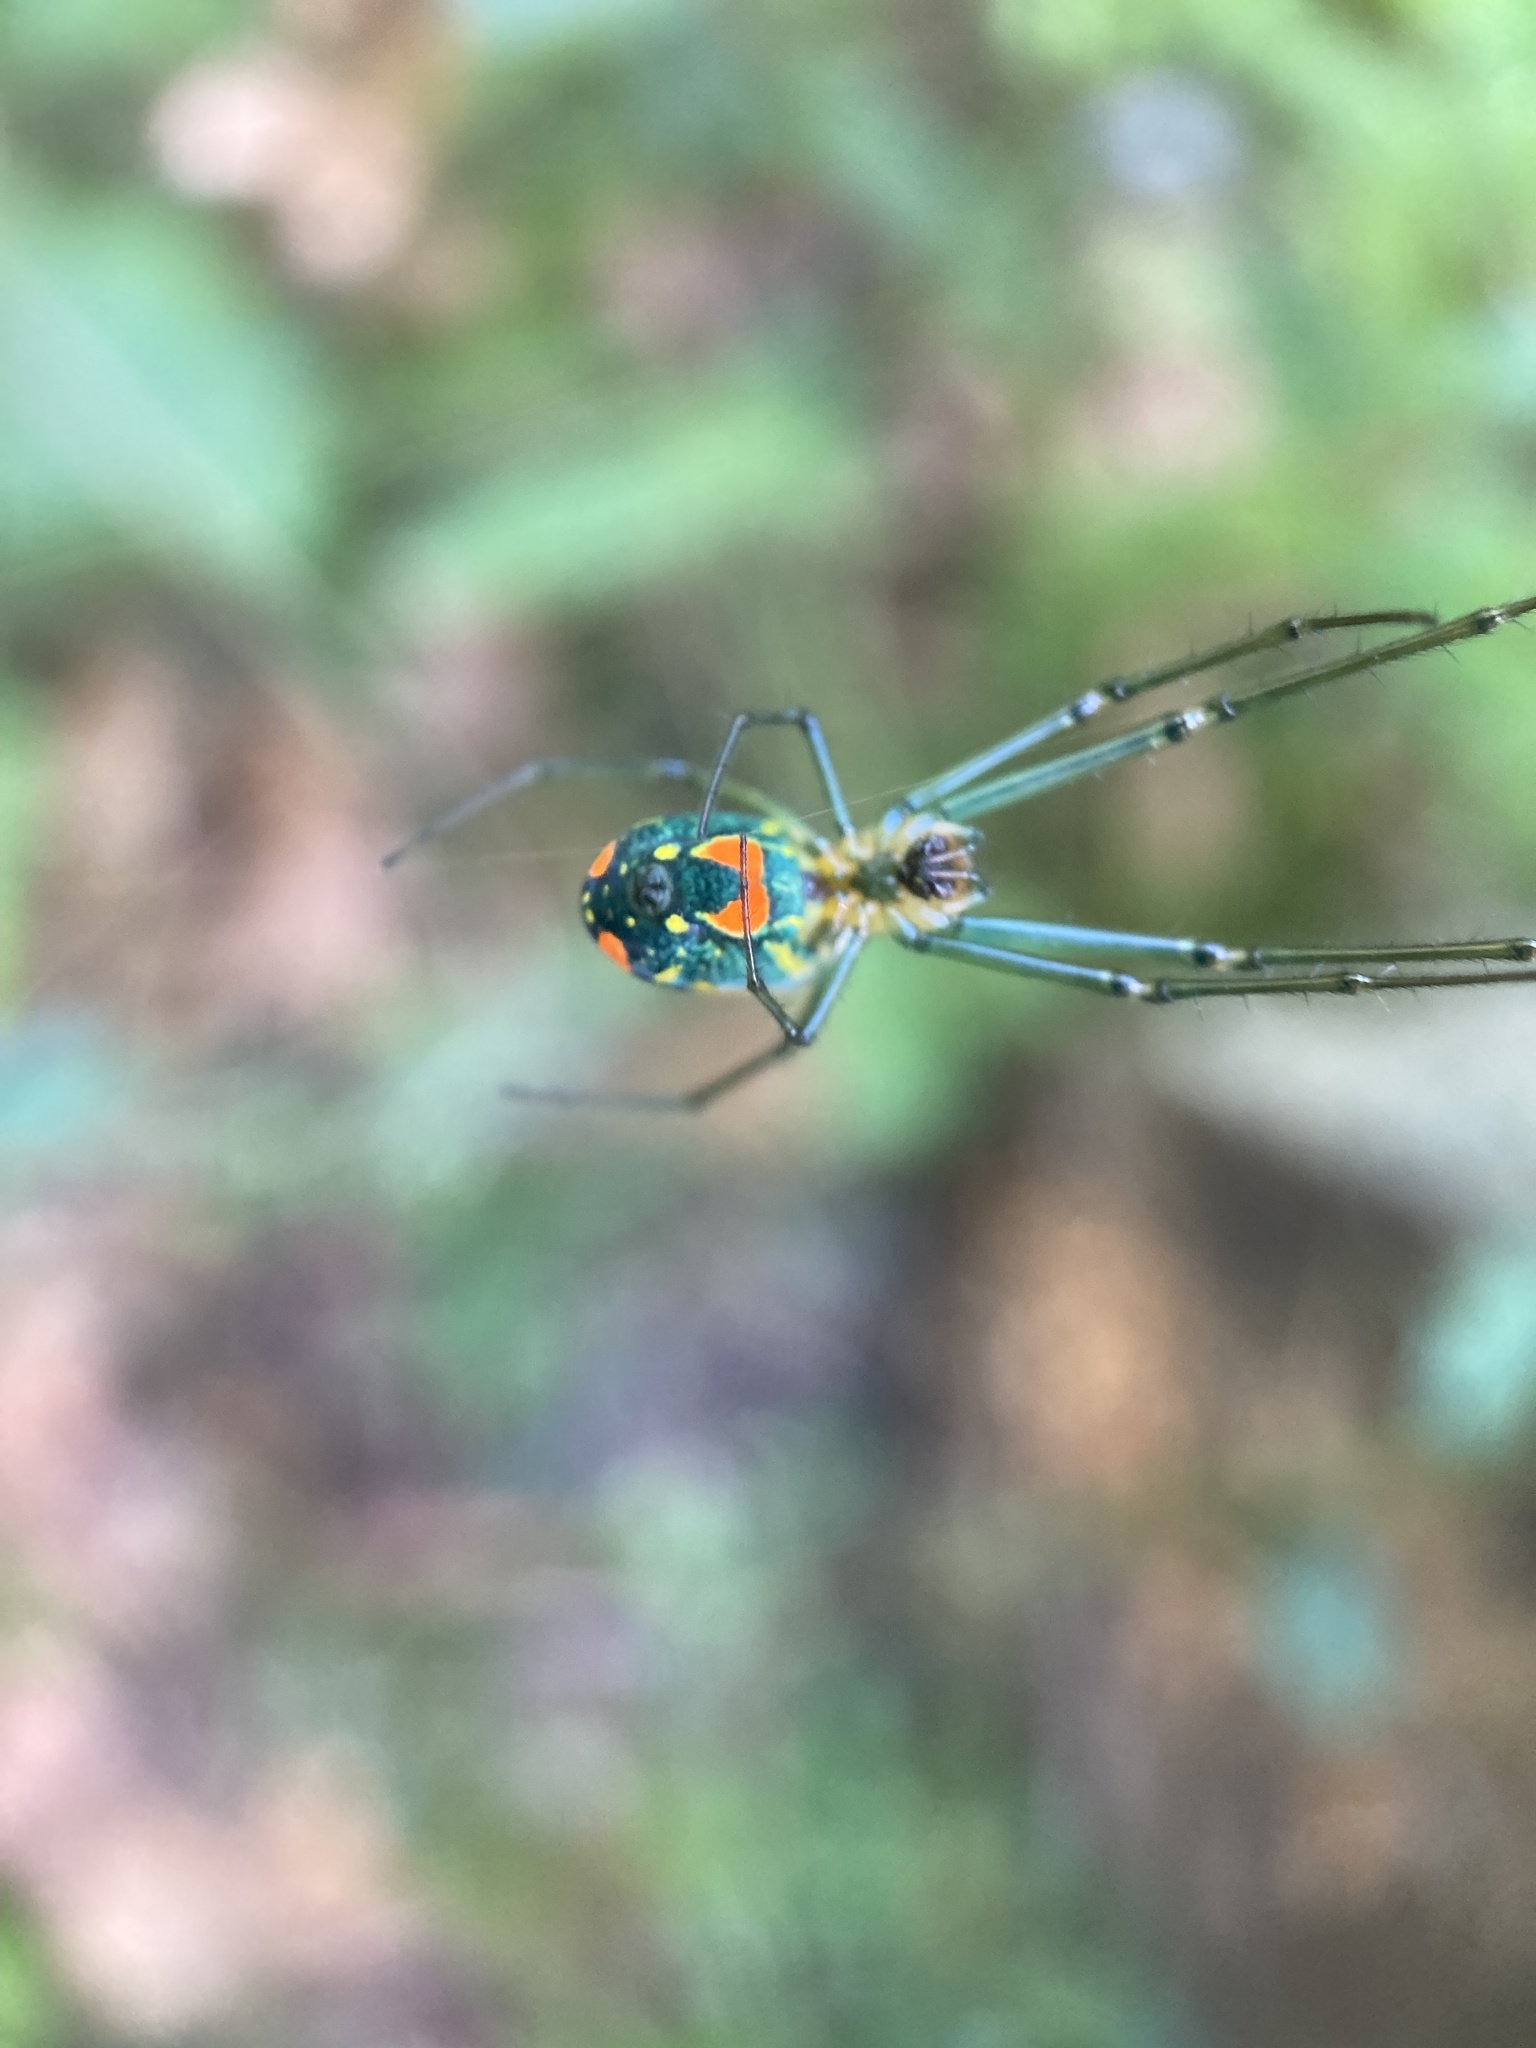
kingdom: Animalia
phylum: Arthropoda
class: Arachnida
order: Araneae
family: Tetragnathidae
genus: Leucauge
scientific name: Leucauge argyrobapta
